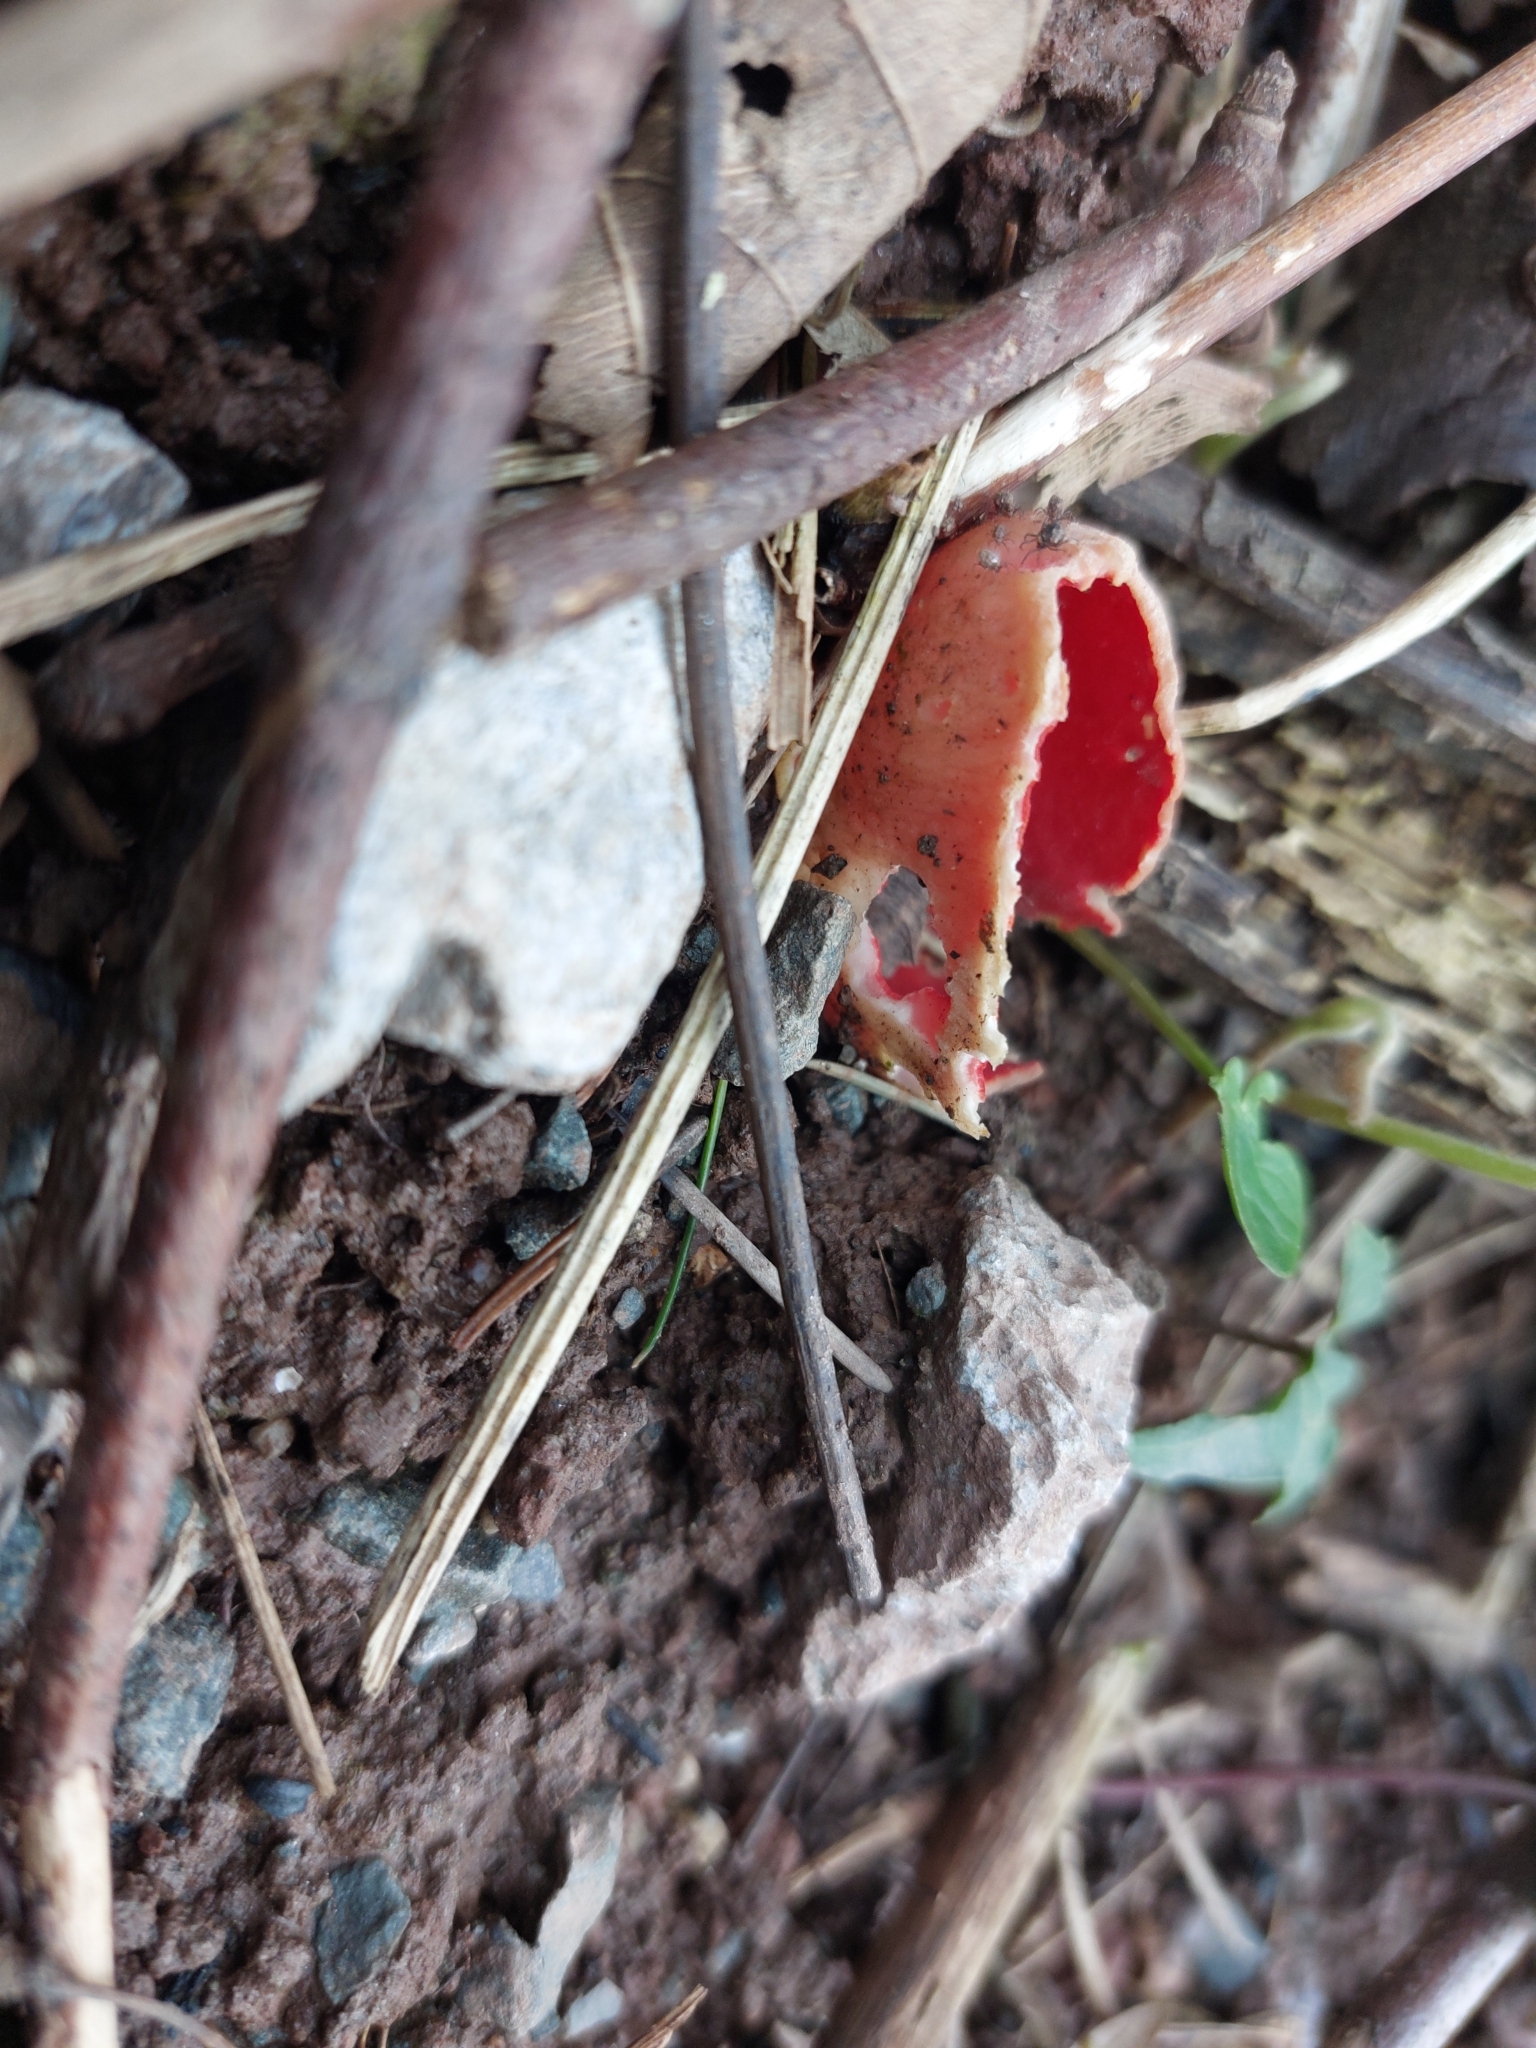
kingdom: Fungi
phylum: Ascomycota
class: Pezizomycetes
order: Pezizales
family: Sarcoscyphaceae
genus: Sarcoscypha
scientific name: Sarcoscypha
